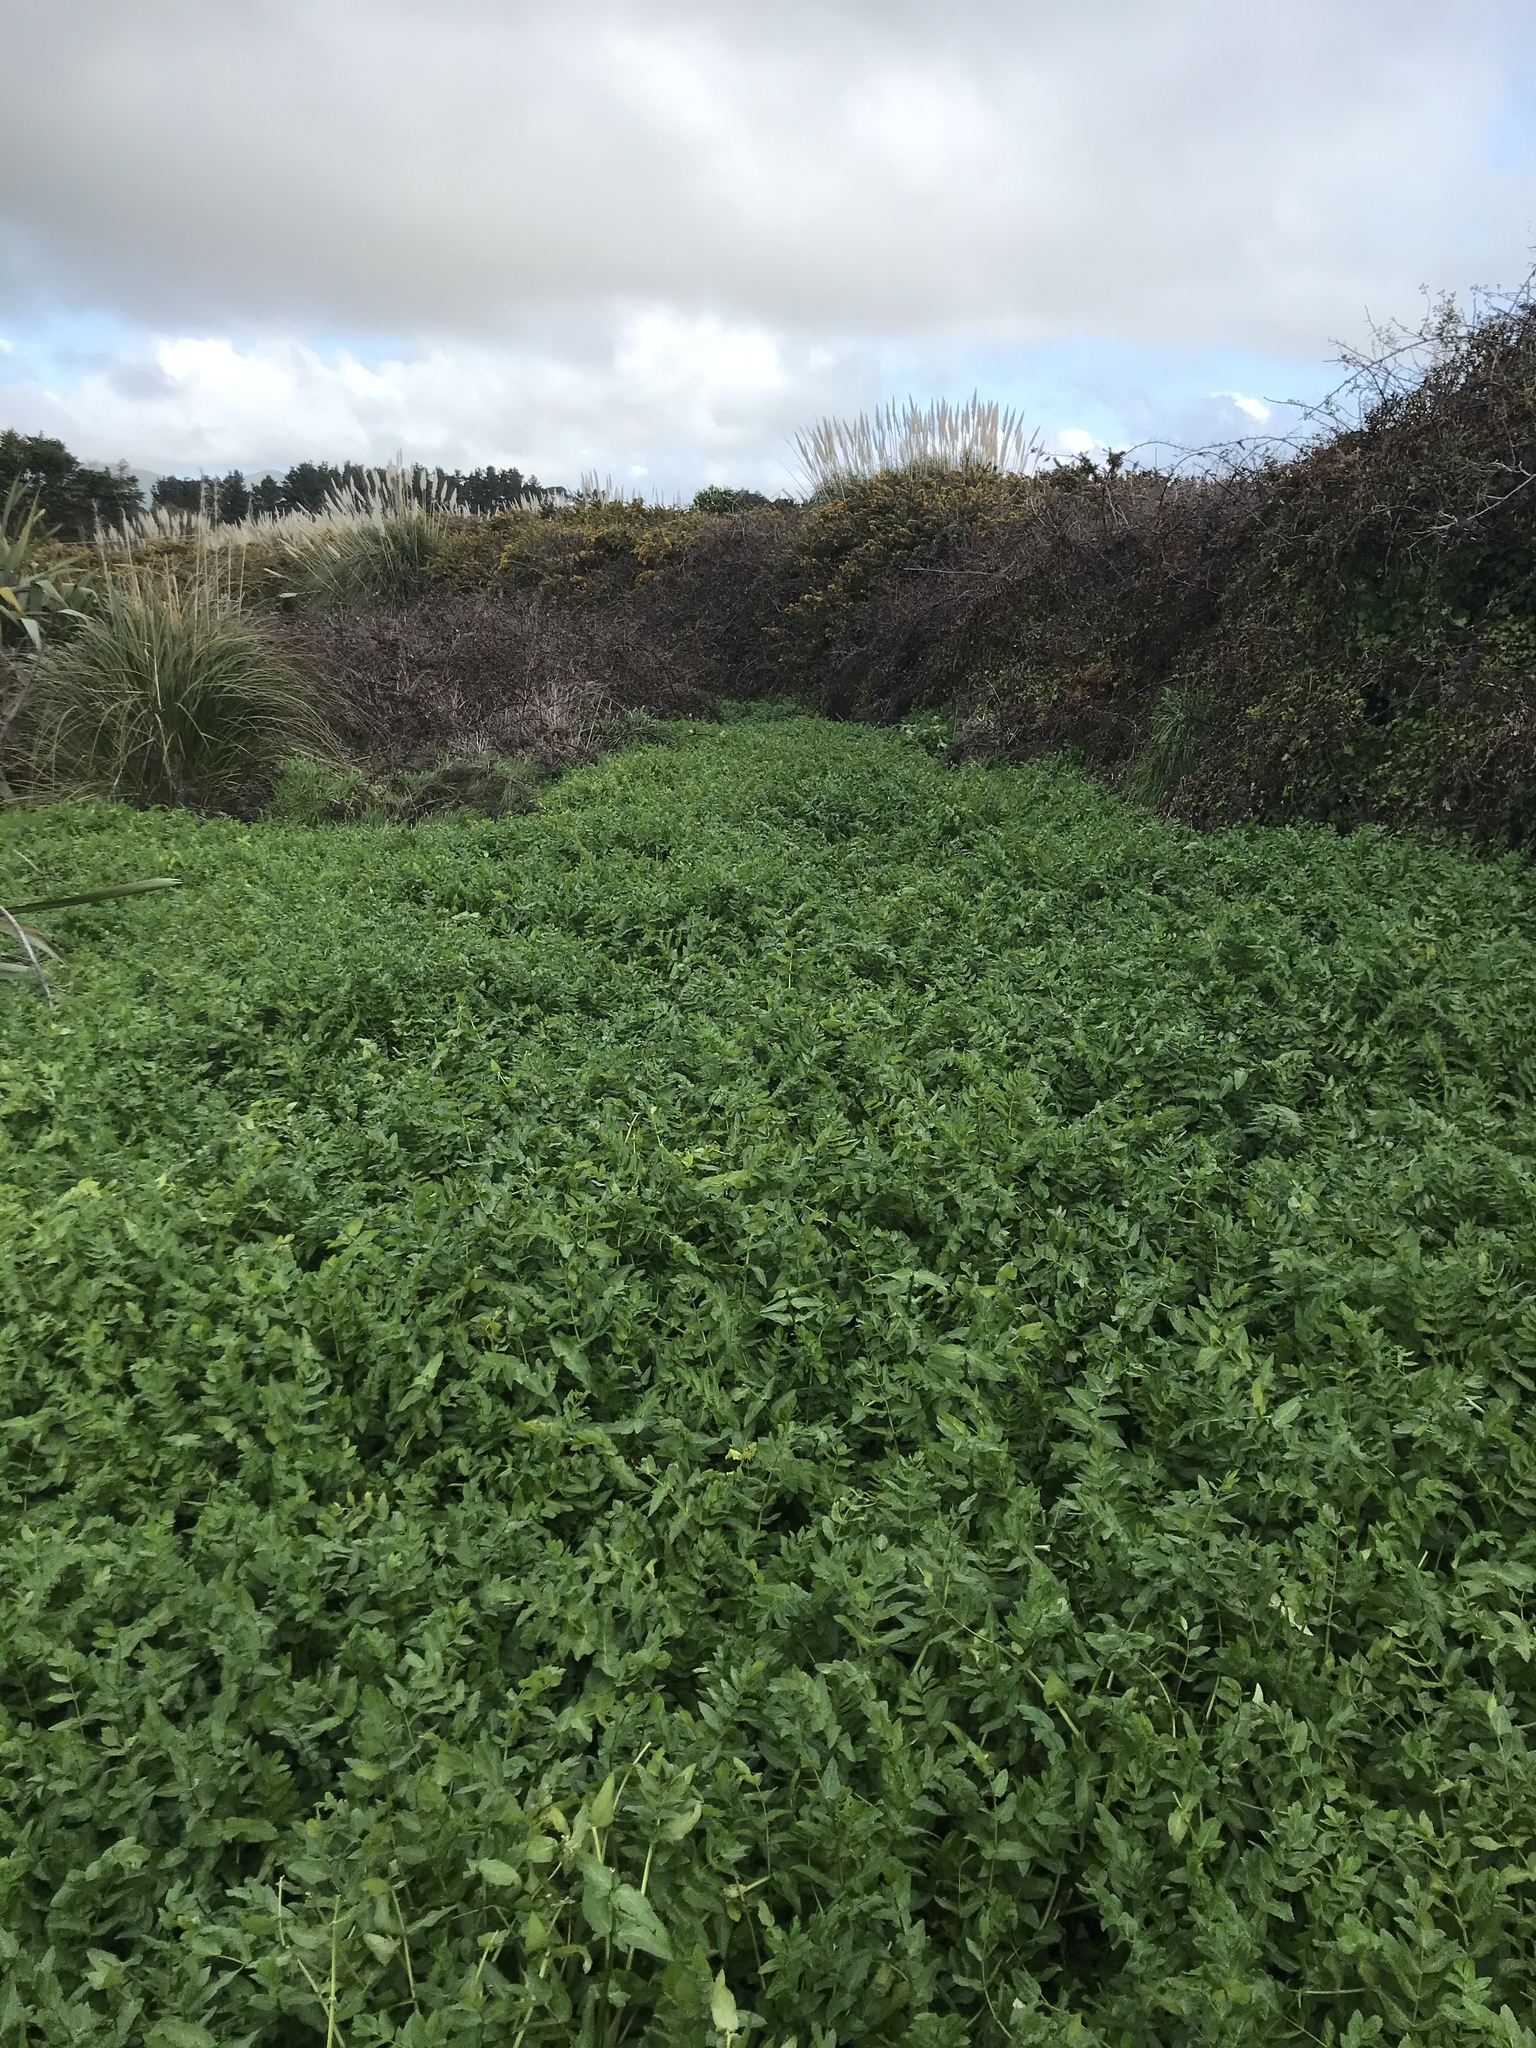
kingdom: Plantae
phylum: Tracheophyta
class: Magnoliopsida
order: Apiales
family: Apiaceae
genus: Helosciadium
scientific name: Helosciadium nodiflorum
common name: Fool's-watercress
